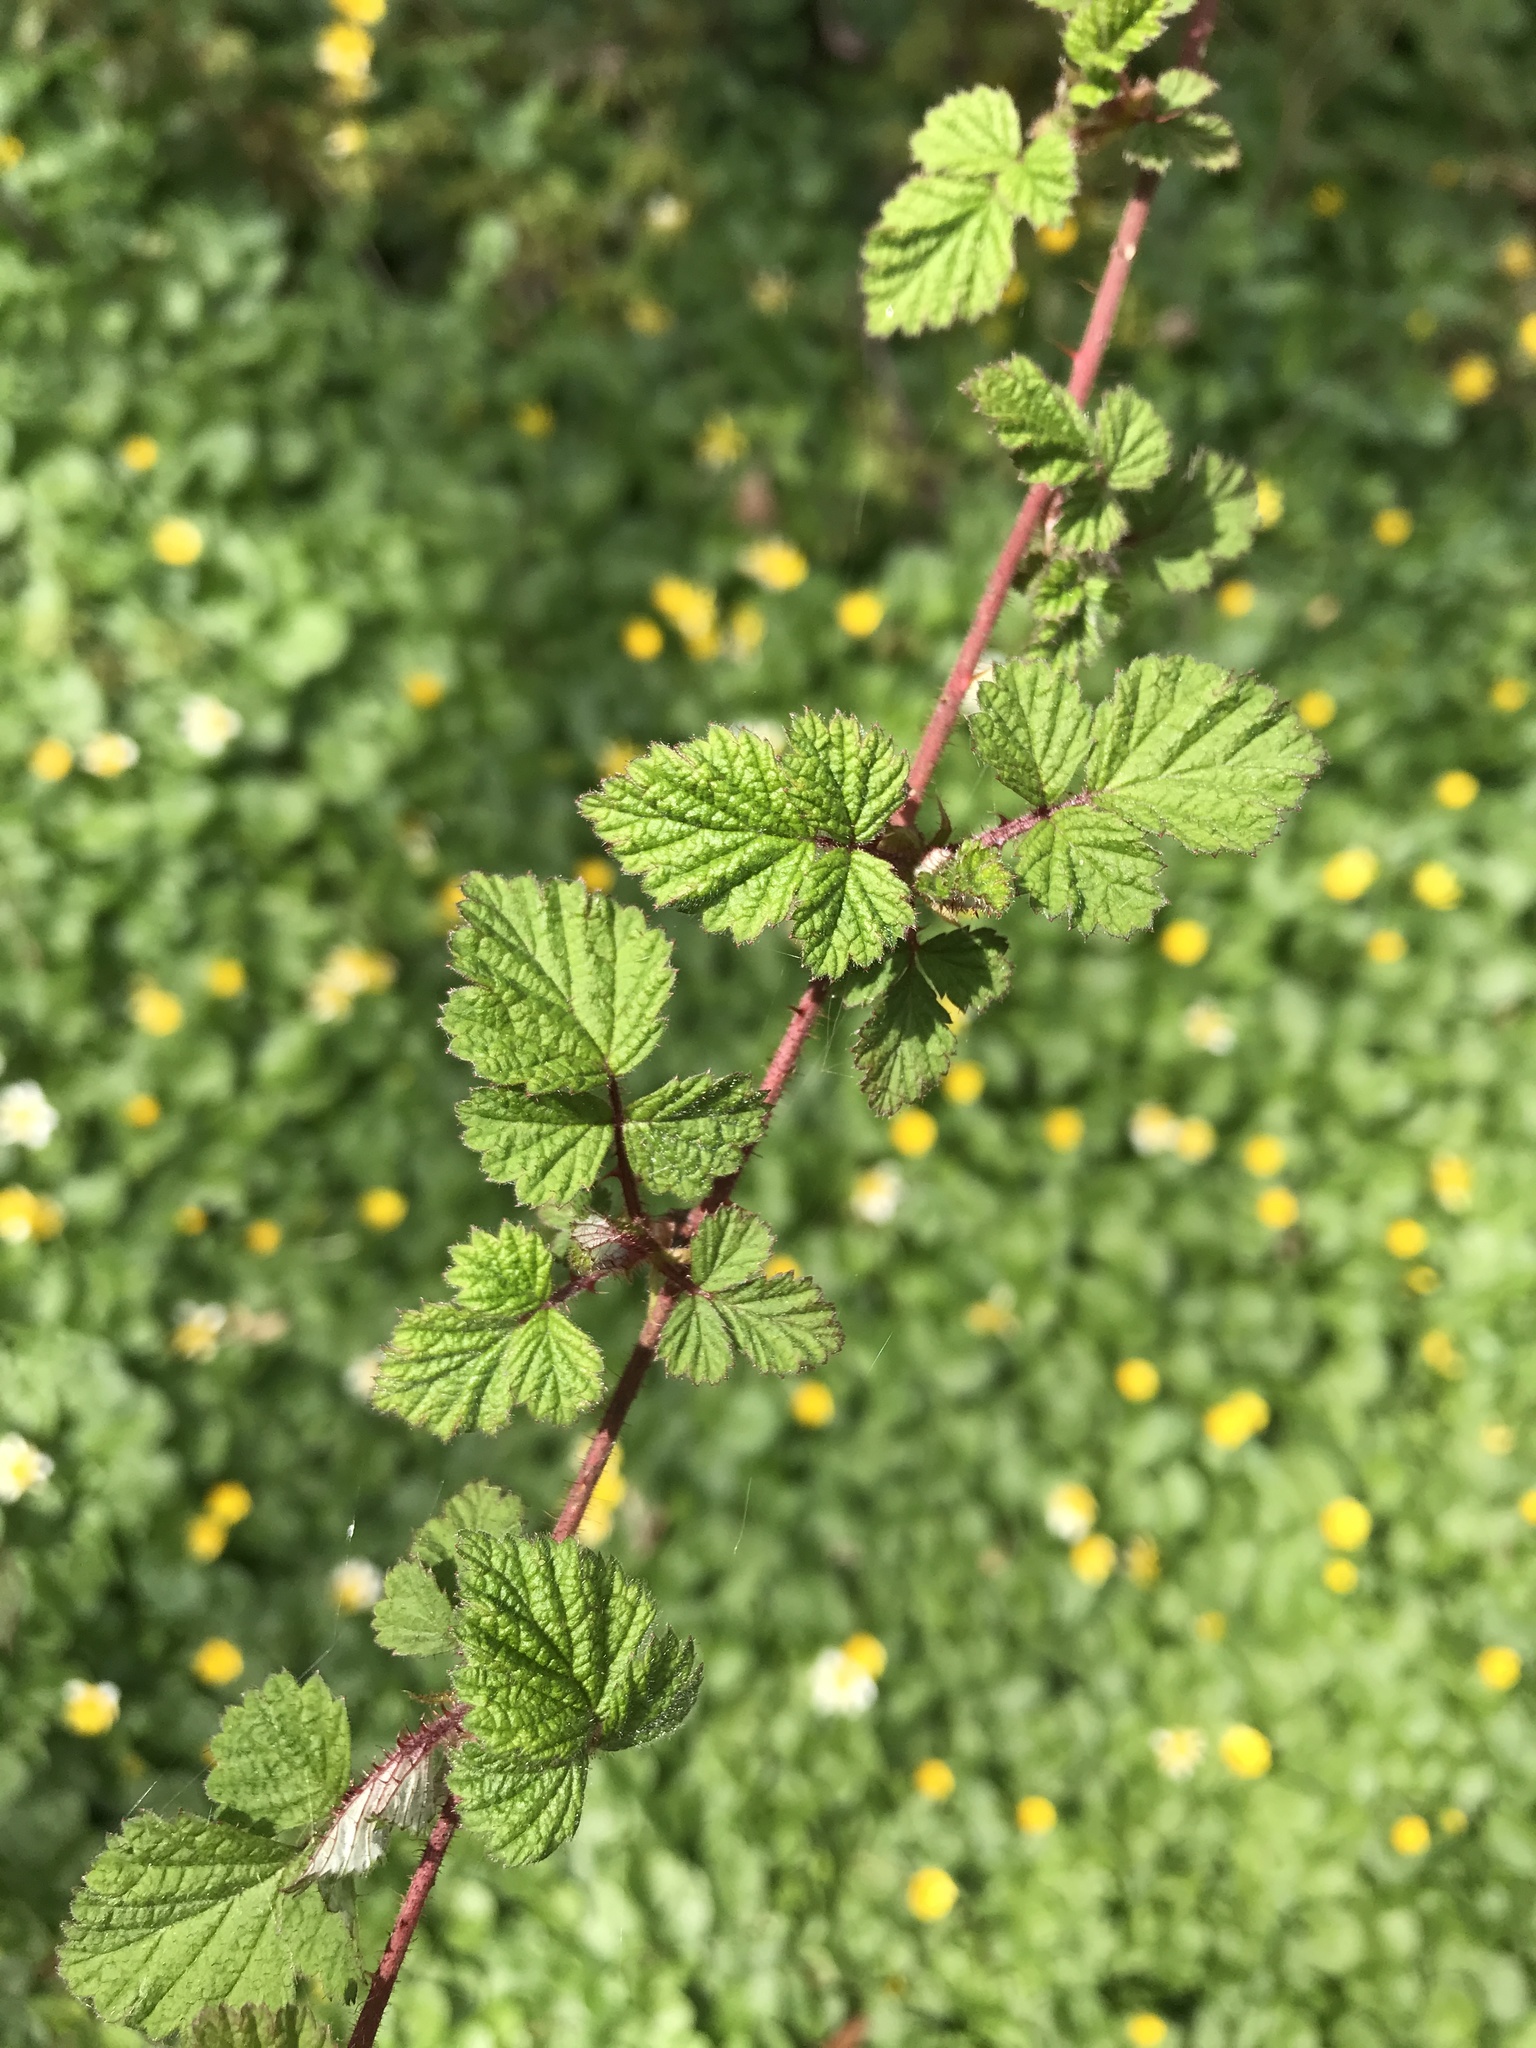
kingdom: Plantae
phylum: Tracheophyta
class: Magnoliopsida
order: Rosales
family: Rosaceae
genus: Rubus
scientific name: Rubus phoenicolasius
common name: Japanese wineberry
